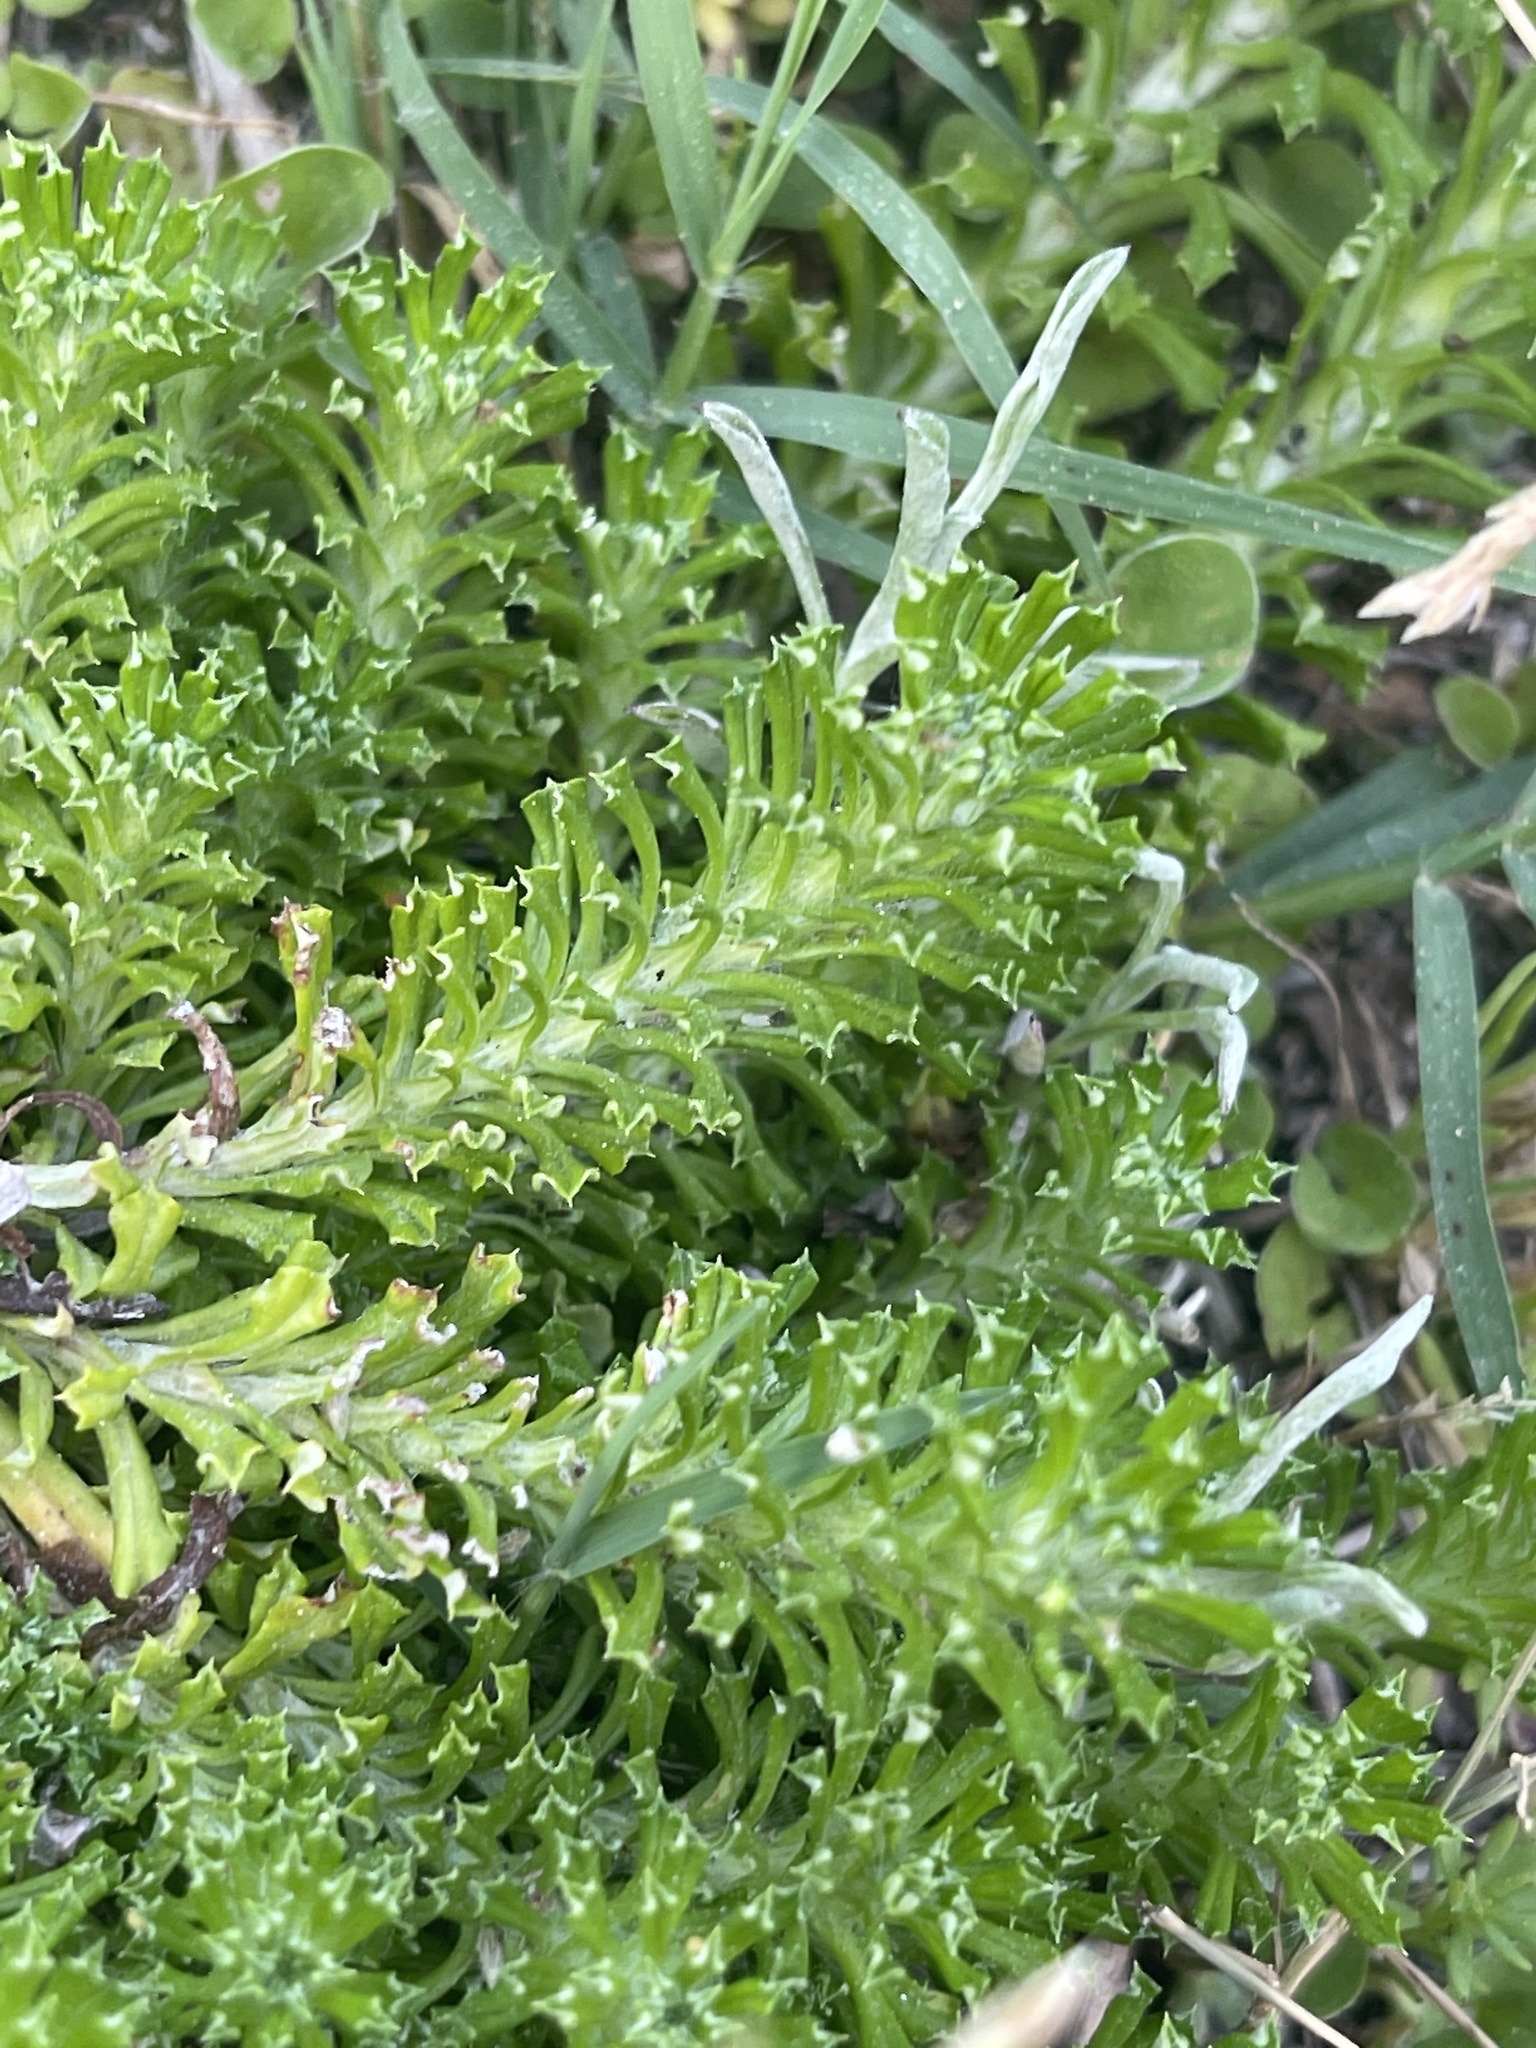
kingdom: Plantae
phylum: Tracheophyta
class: Magnoliopsida
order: Asterales
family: Asteraceae
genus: Facelis
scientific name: Facelis retusa
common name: Annual trampweed
